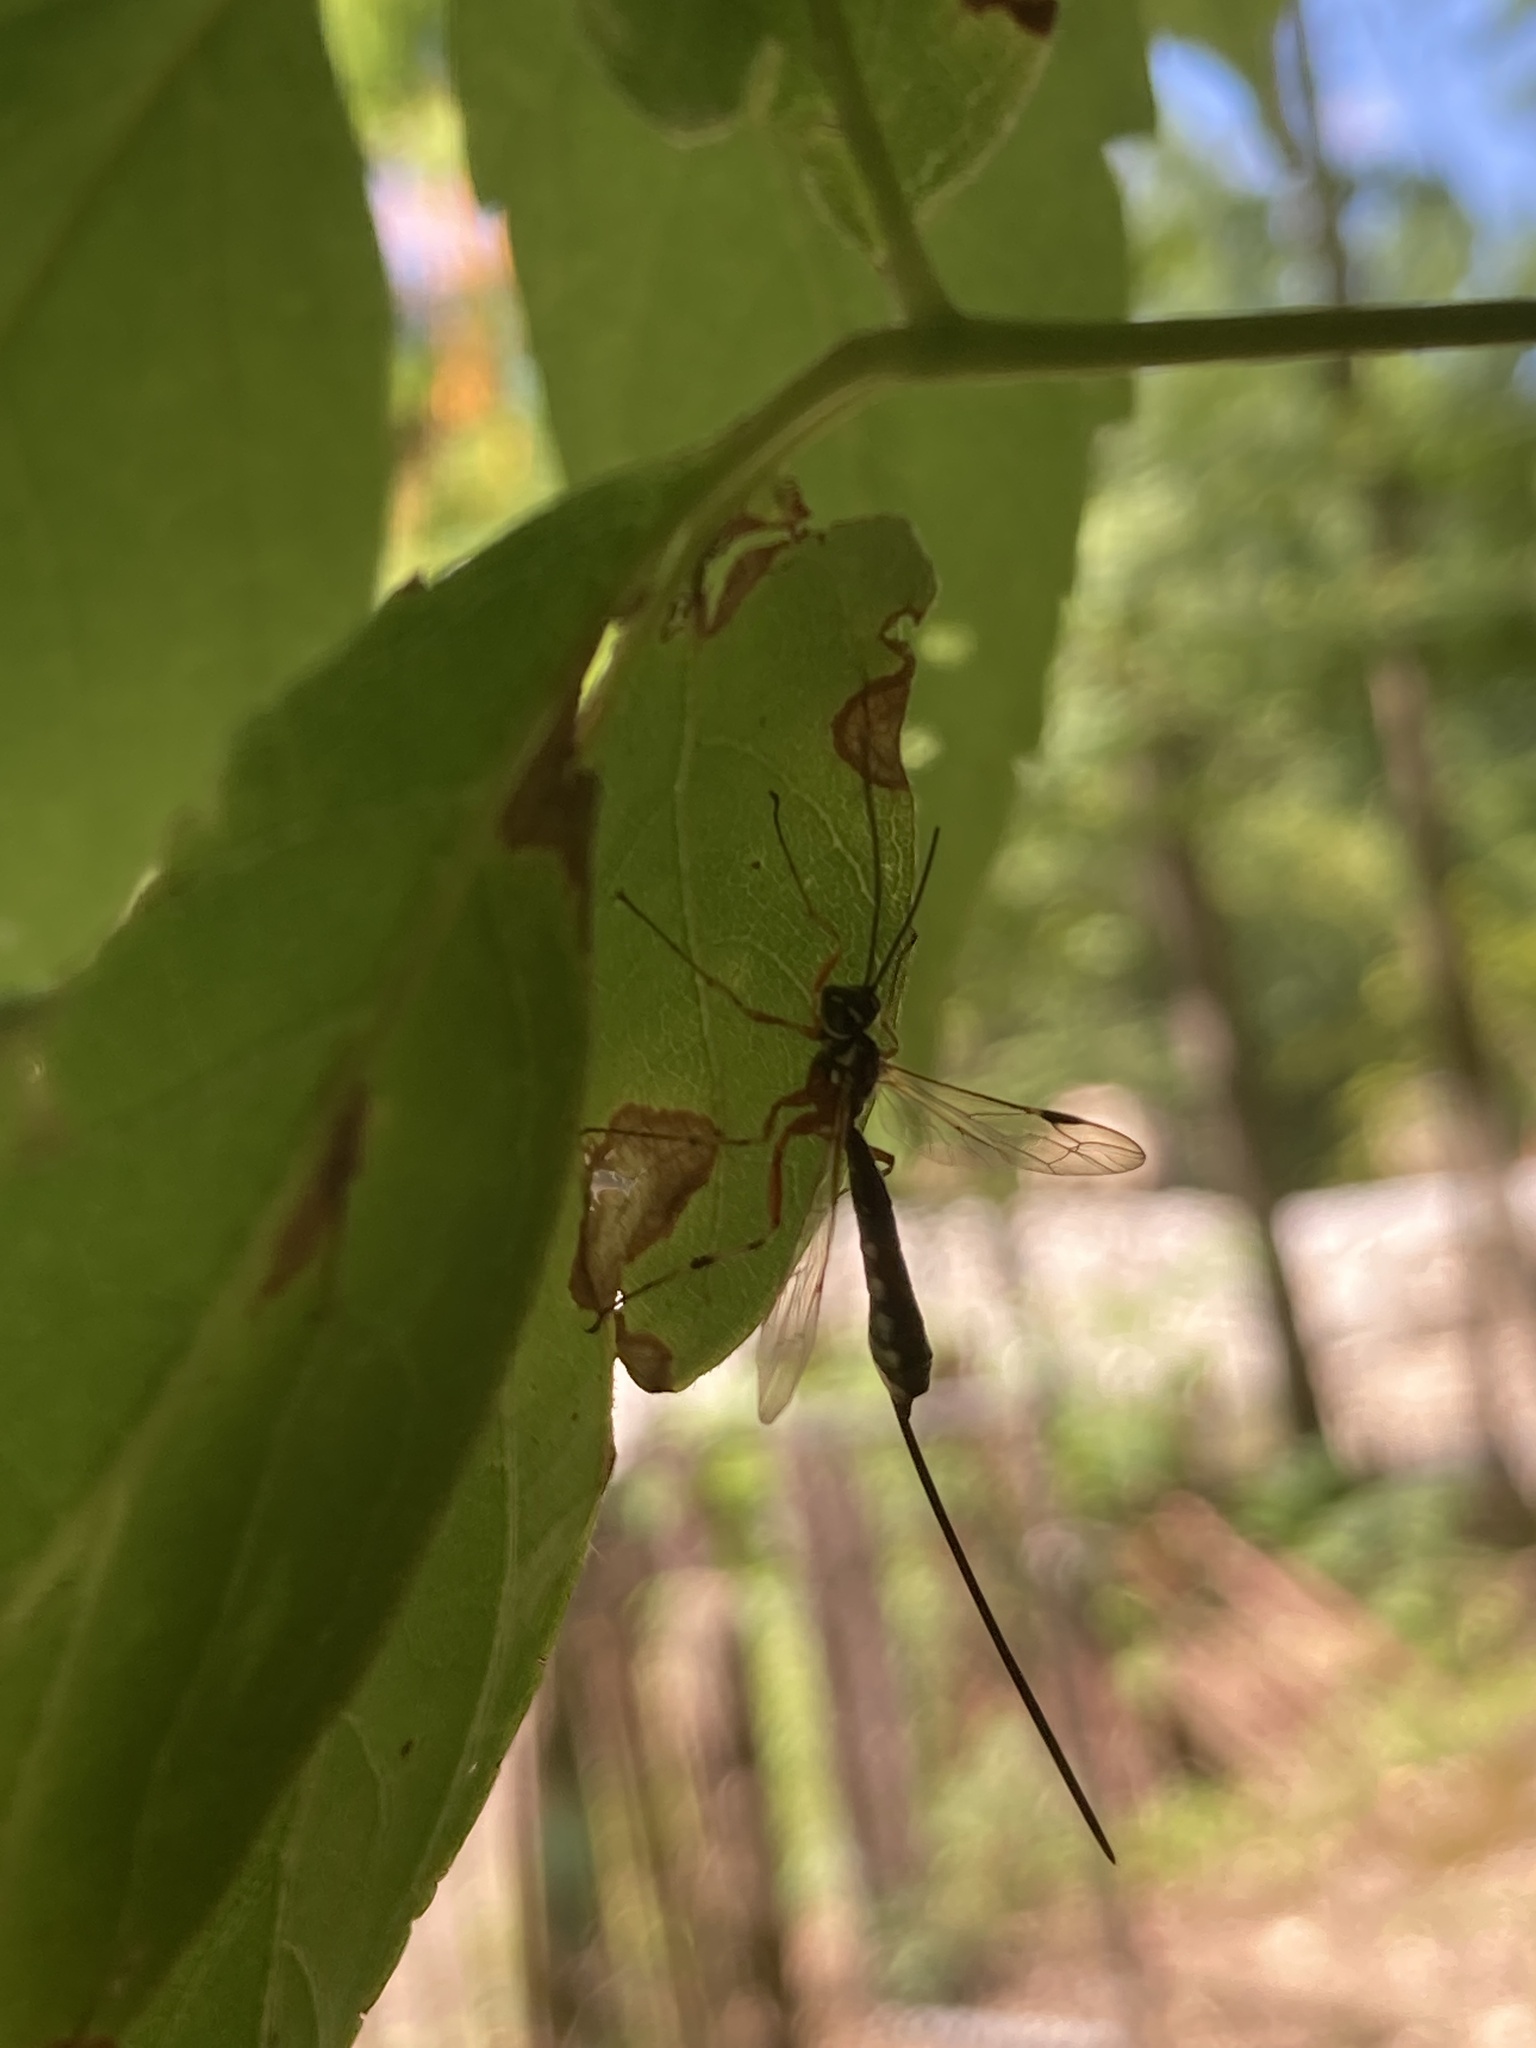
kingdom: Animalia
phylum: Arthropoda
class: Insecta
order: Hymenoptera
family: Ichneumonidae
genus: Megarhyssa
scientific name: Megarhyssa nortoni
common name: Norton's giant ichneumonid wasp
